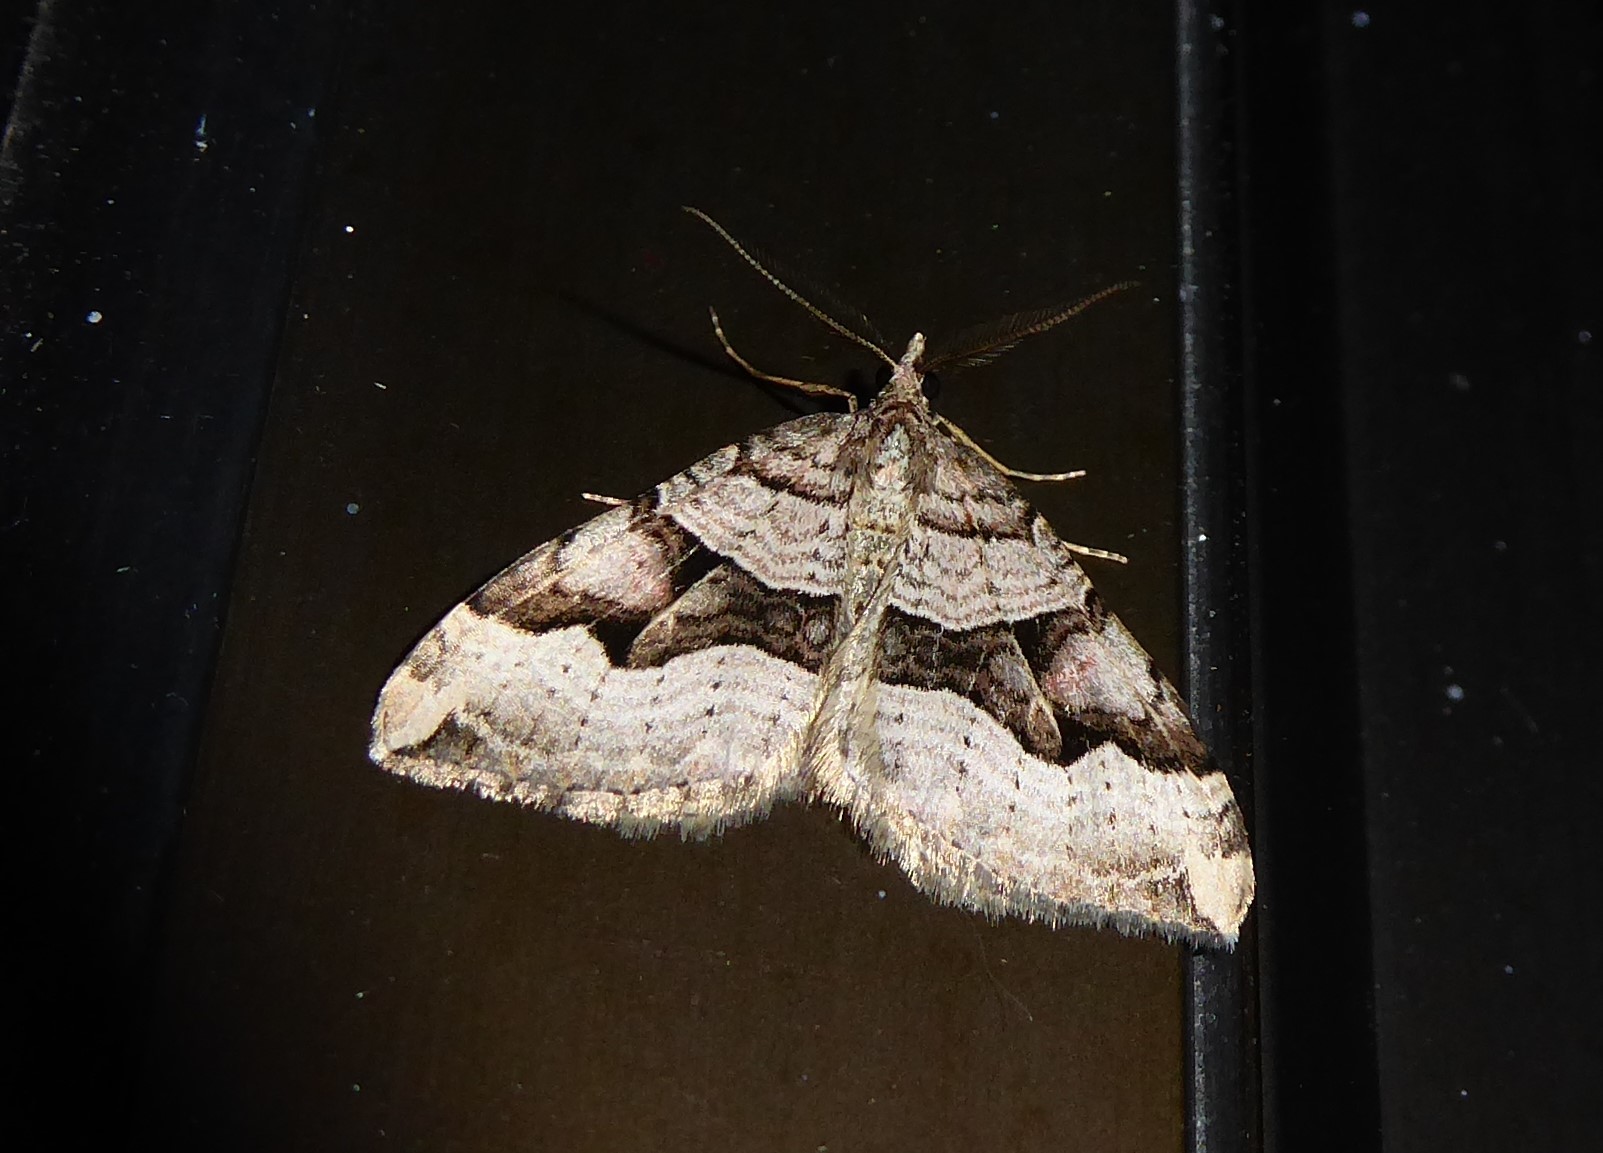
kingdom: Animalia
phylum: Arthropoda
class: Insecta
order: Lepidoptera
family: Geometridae
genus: Xanthorhoe
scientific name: Xanthorhoe semifissata
